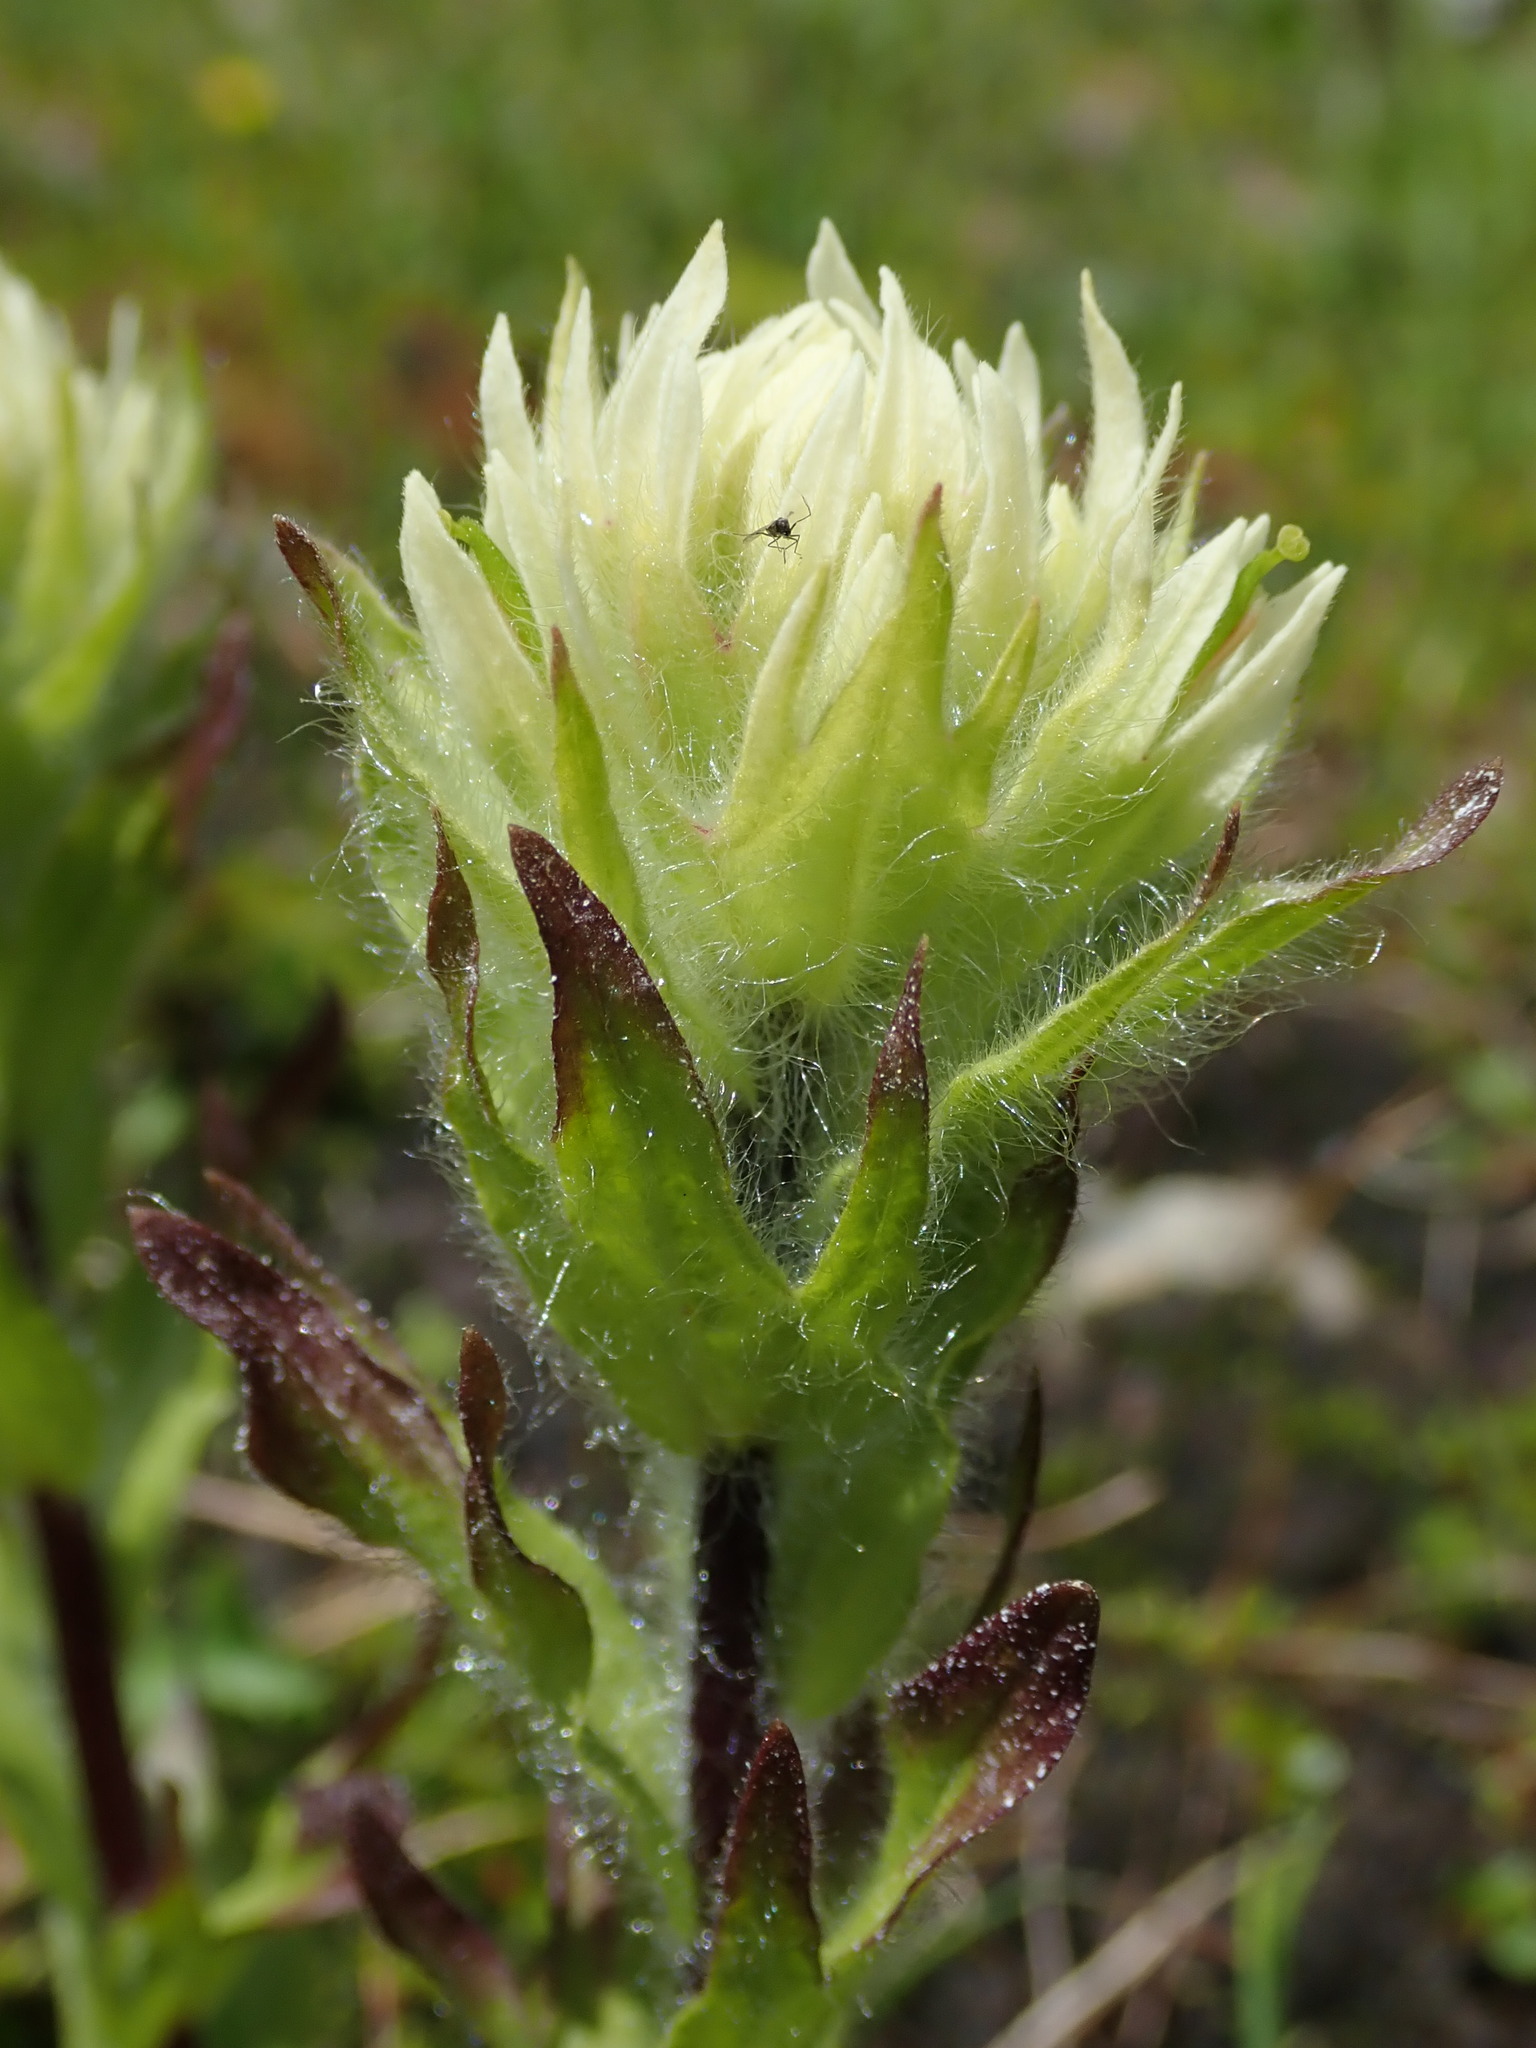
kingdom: Plantae
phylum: Tracheophyta
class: Magnoliopsida
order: Lamiales
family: Orobanchaceae
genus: Castilleja
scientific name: Castilleja parviflora
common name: Mountain paintbrush
